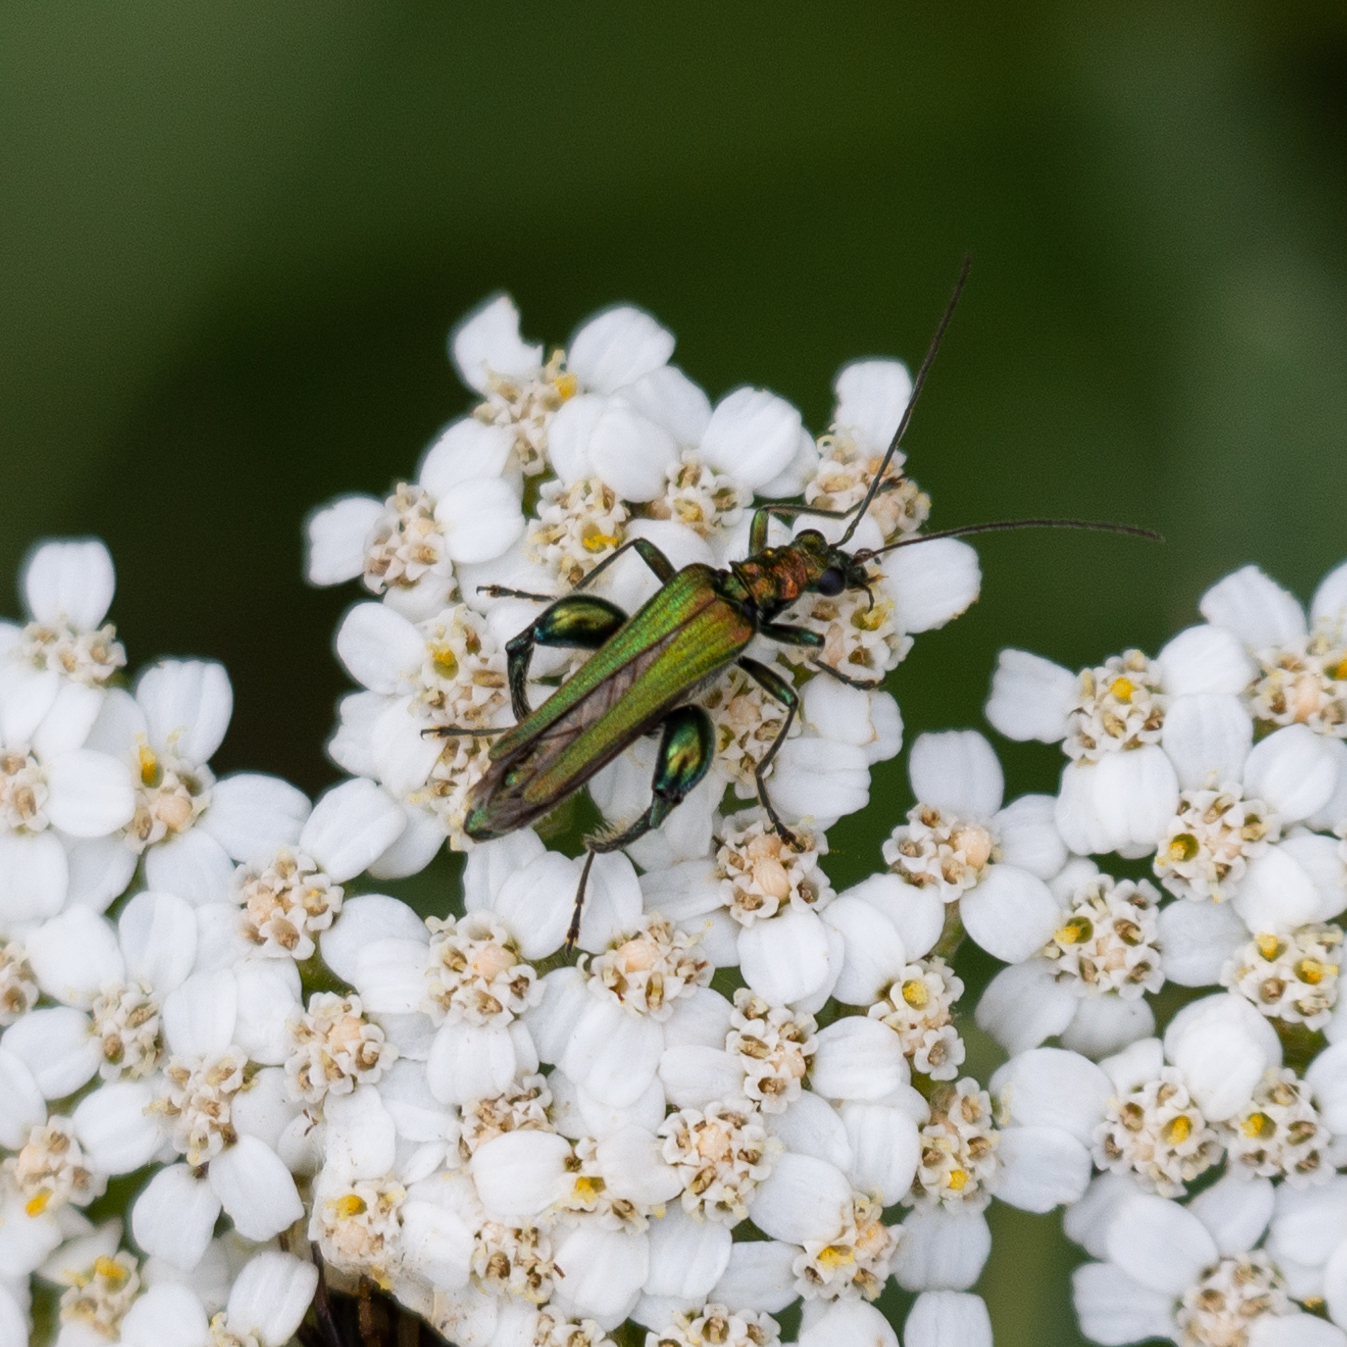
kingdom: Animalia
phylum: Arthropoda
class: Insecta
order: Coleoptera
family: Oedemeridae
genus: Oedemera
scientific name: Oedemera nobilis
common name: Swollen-thighed beetle
